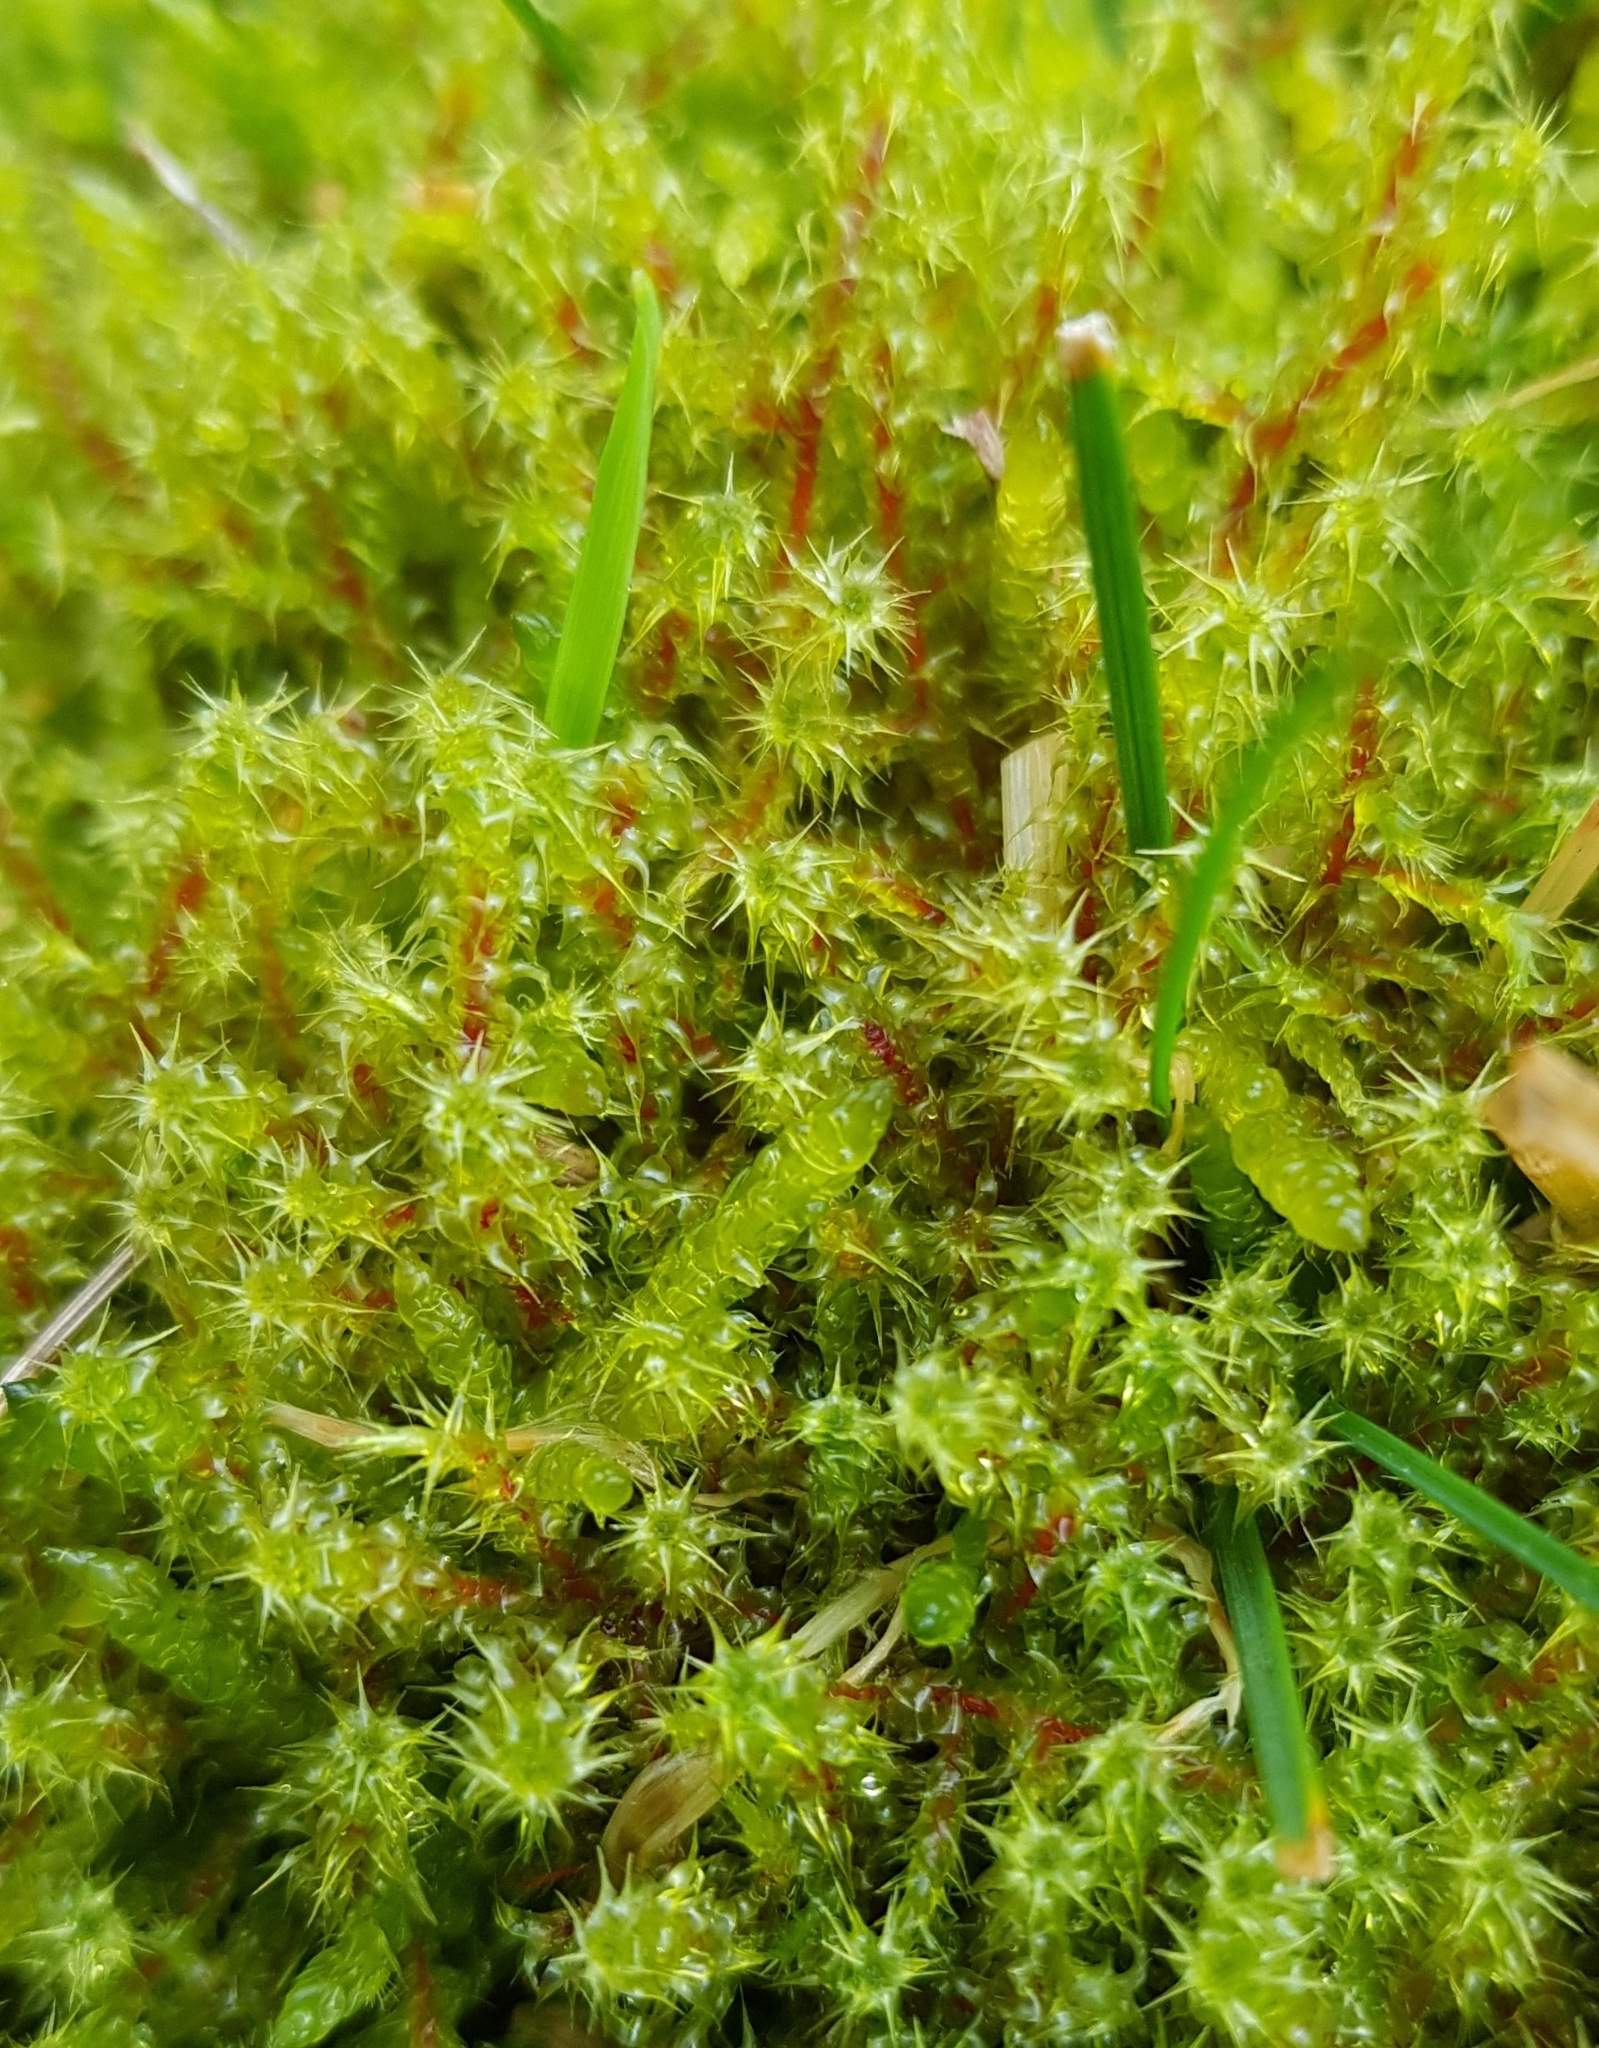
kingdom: Plantae
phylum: Bryophyta
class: Bryopsida
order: Hypnales
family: Hylocomiaceae
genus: Rhytidiadelphus
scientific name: Rhytidiadelphus squarrosus
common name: Springy turf-moss
